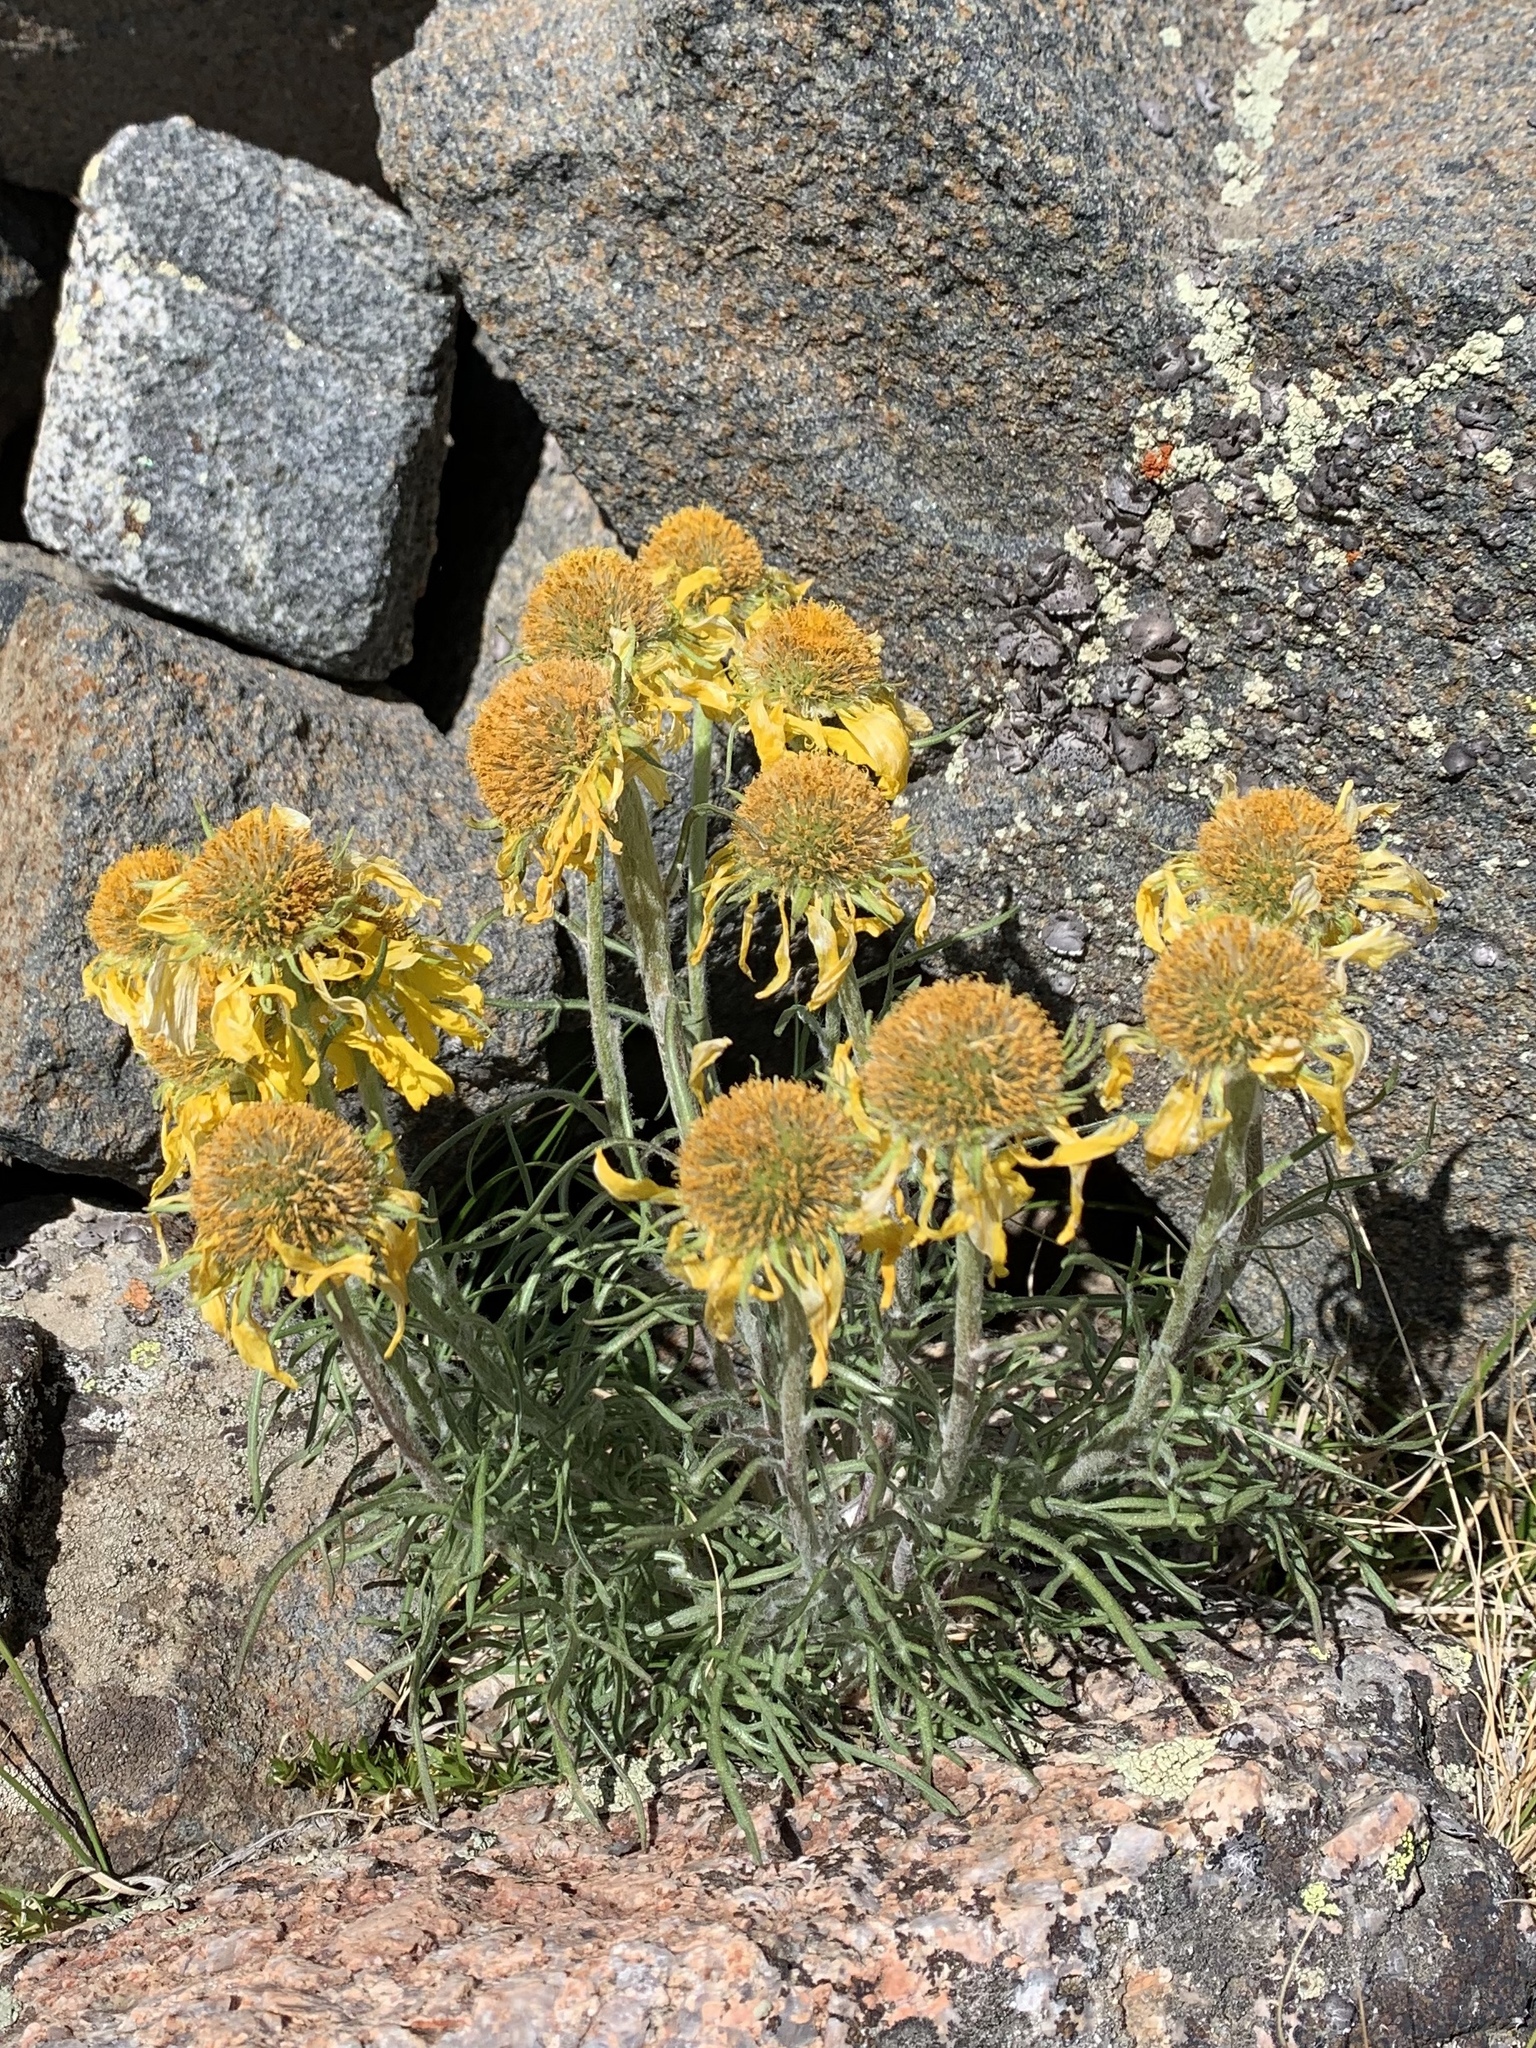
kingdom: Plantae
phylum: Tracheophyta
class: Magnoliopsida
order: Asterales
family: Asteraceae
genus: Hymenoxys
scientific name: Hymenoxys grandiflora
